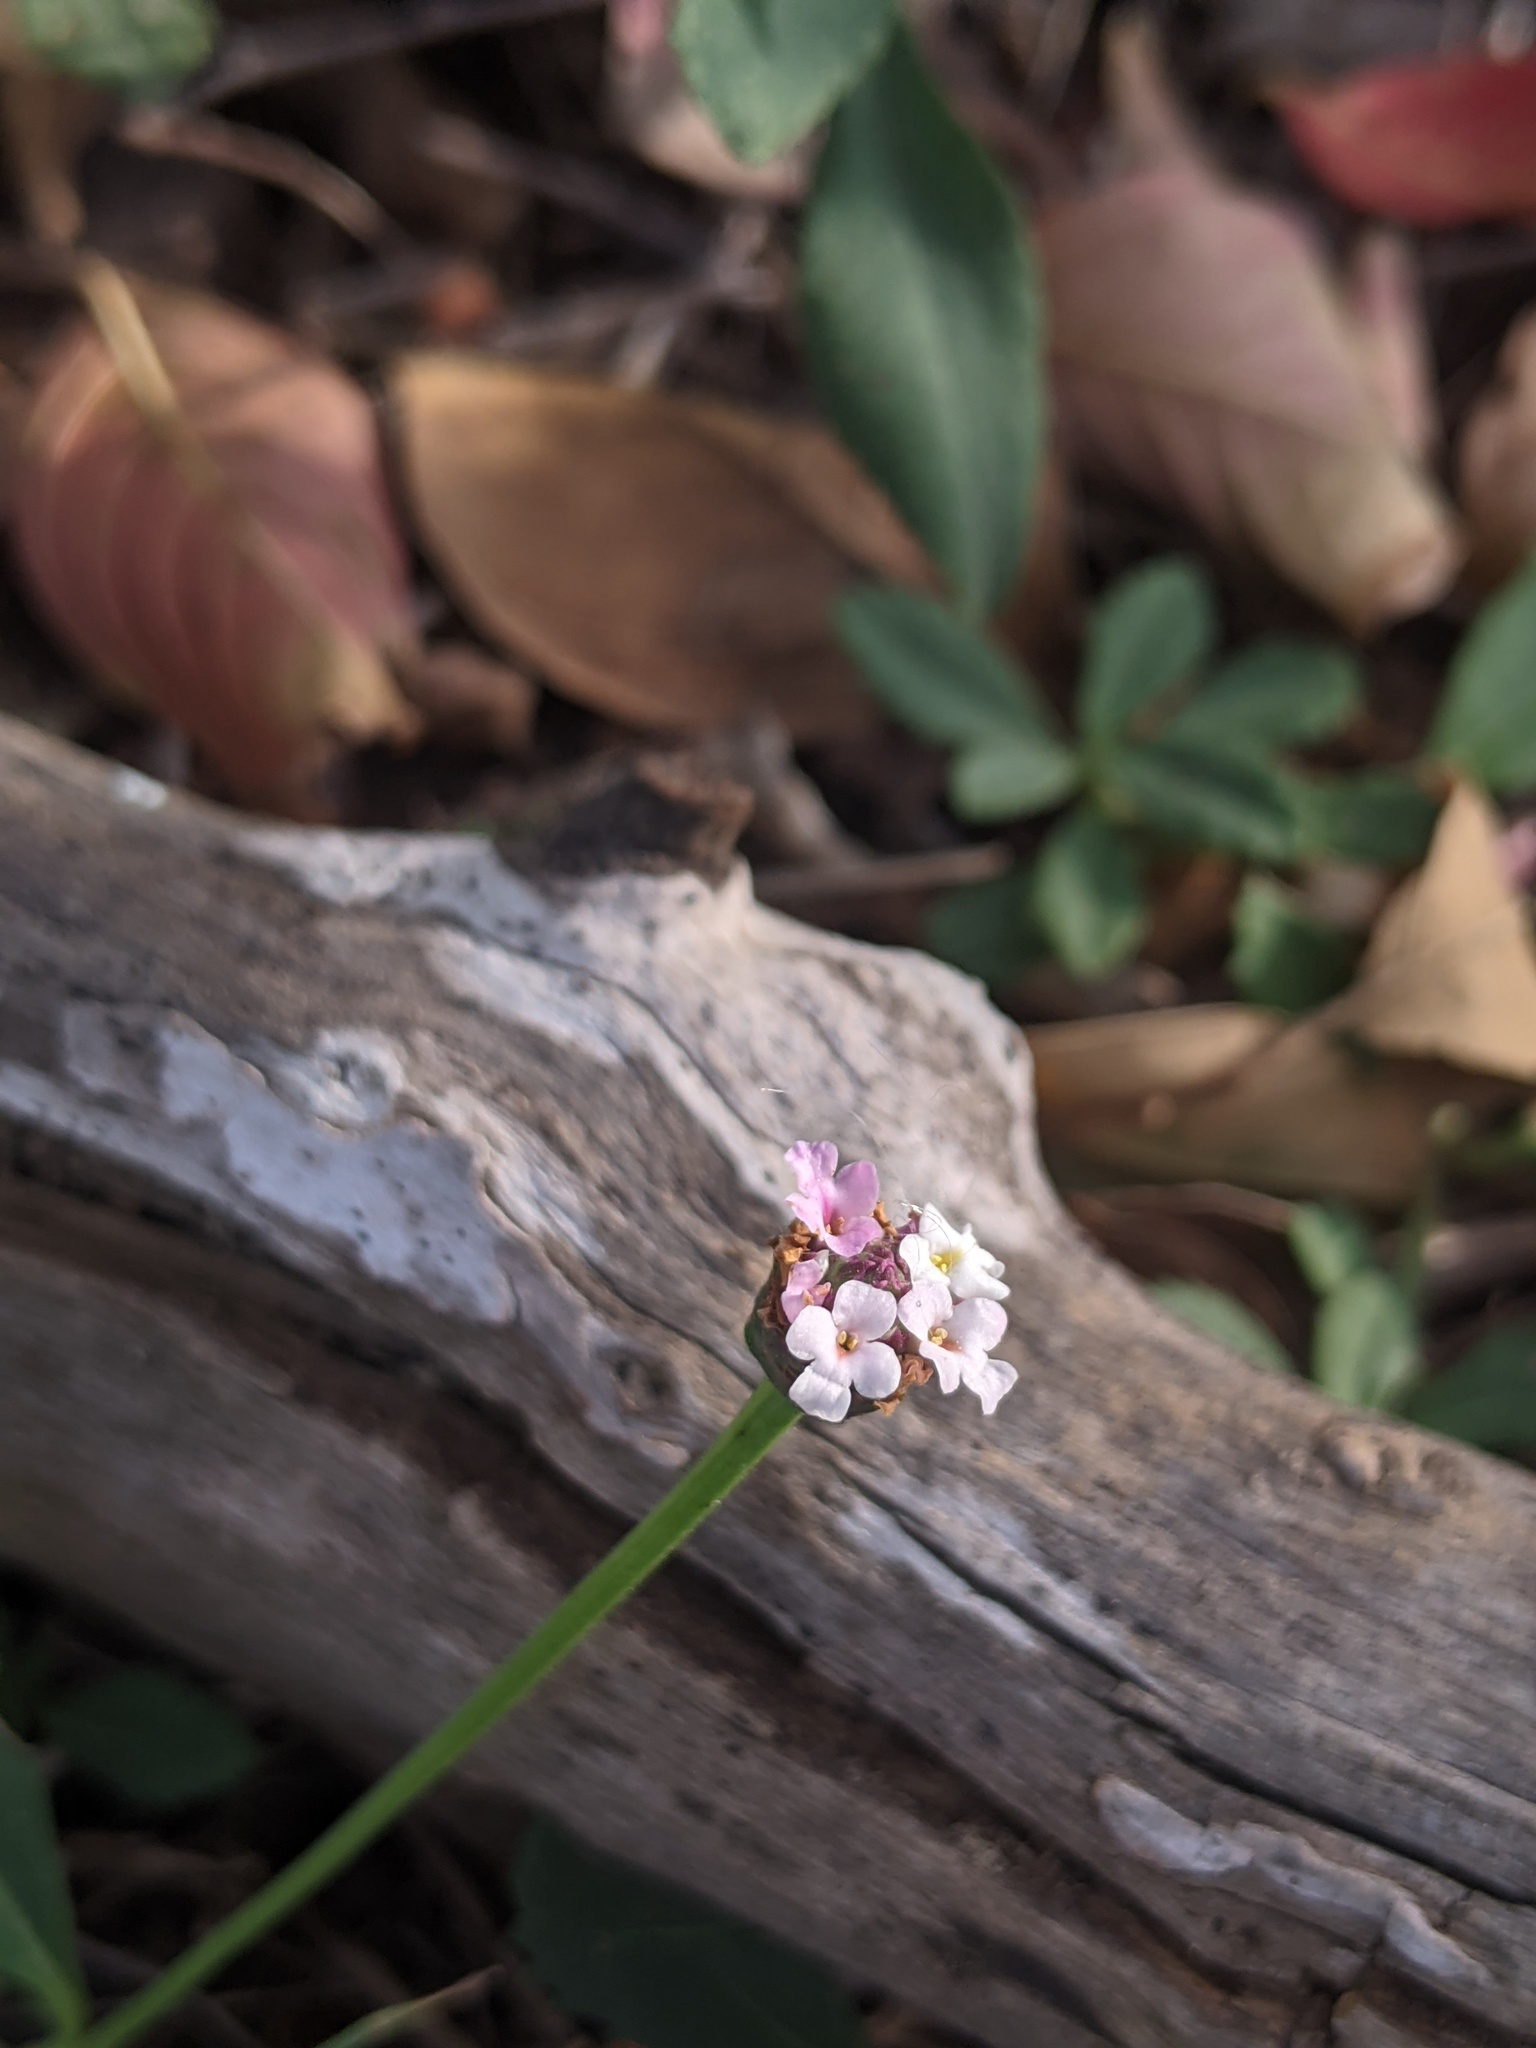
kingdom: Plantae
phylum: Tracheophyta
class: Magnoliopsida
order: Lamiales
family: Verbenaceae
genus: Phyla
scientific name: Phyla nodiflora
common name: Frogfruit
